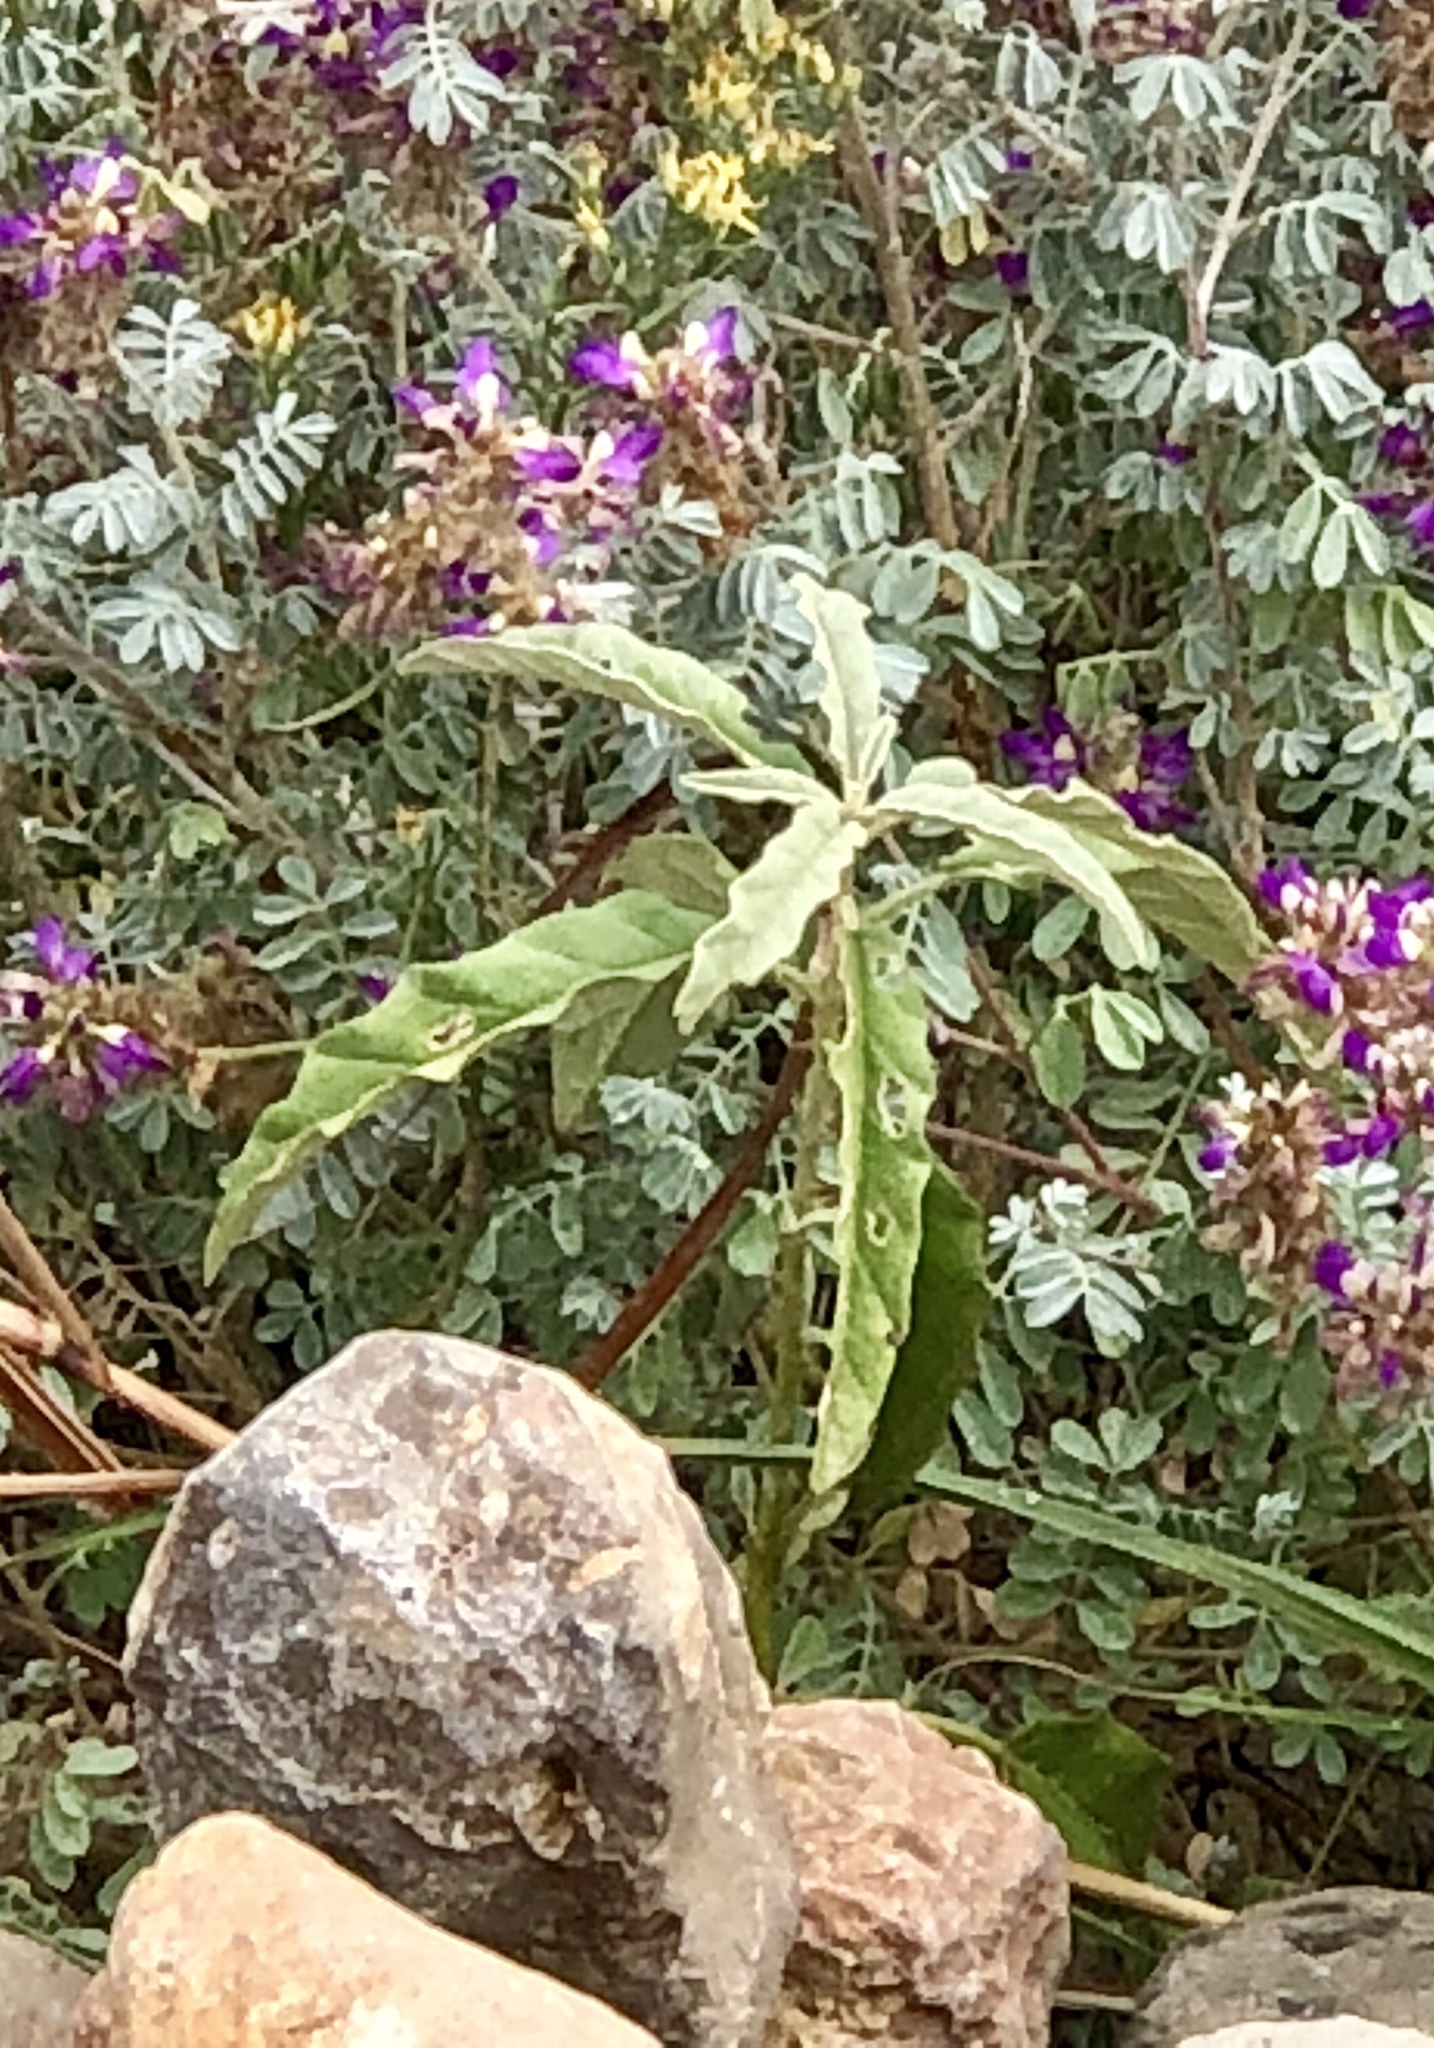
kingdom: Plantae
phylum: Tracheophyta
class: Magnoliopsida
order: Solanales
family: Solanaceae
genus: Solanum
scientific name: Solanum elaeagnifolium
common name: Silverleaf nightshade
